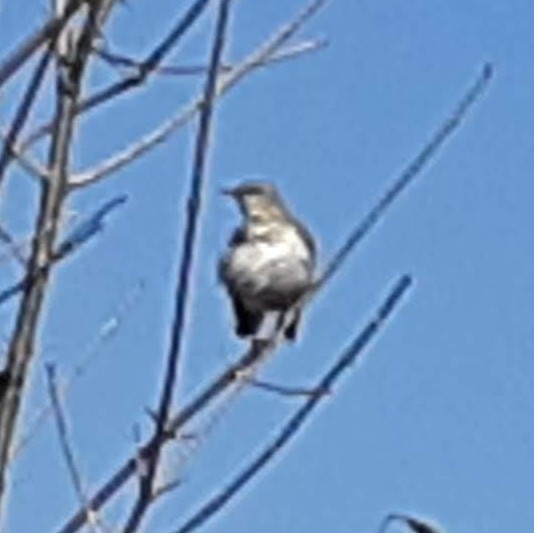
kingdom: Animalia
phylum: Chordata
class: Aves
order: Passeriformes
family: Mimidae
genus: Mimus
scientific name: Mimus polyglottos
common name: Northern mockingbird
